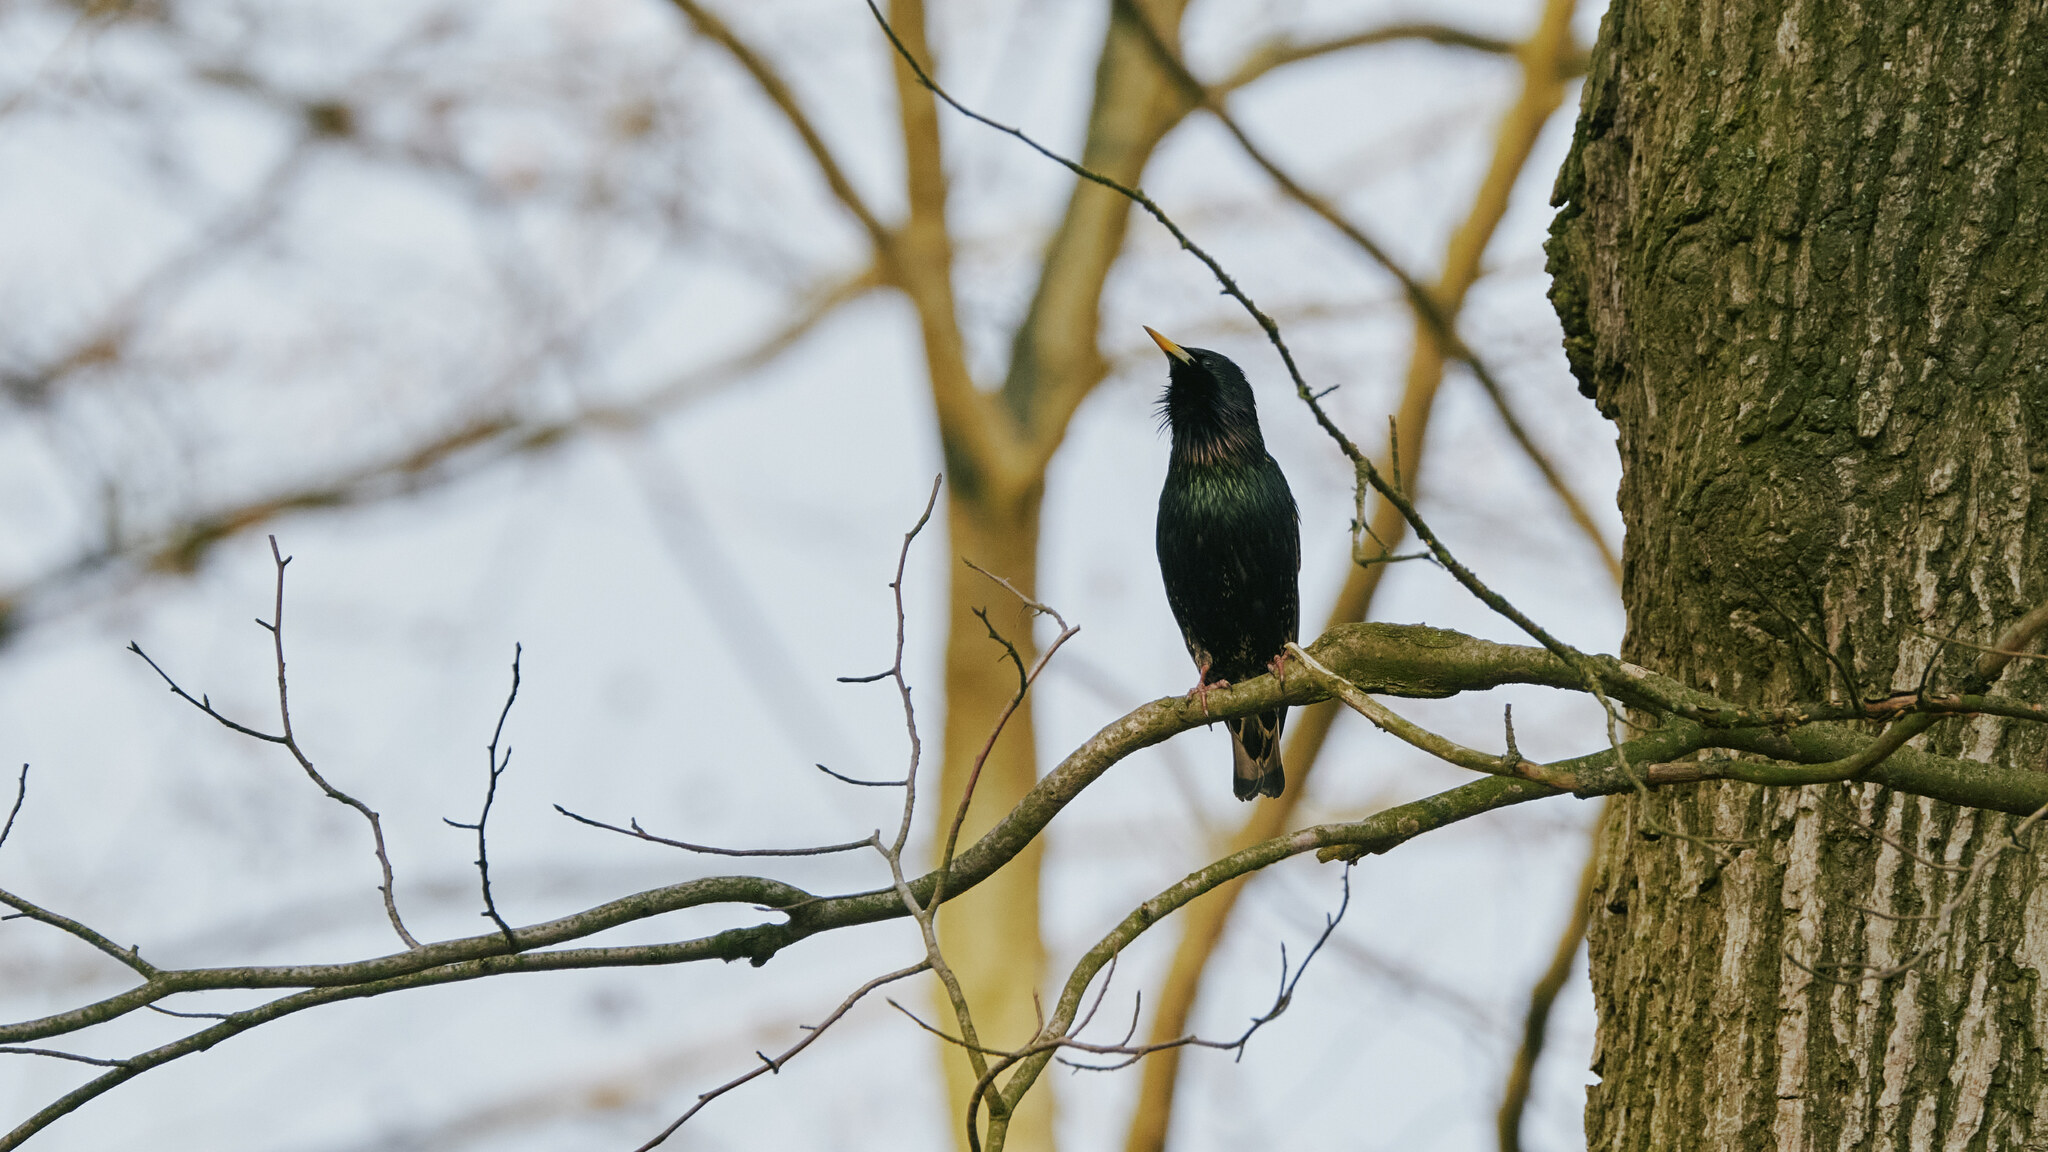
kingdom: Animalia
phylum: Chordata
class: Aves
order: Passeriformes
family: Sturnidae
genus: Sturnus
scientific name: Sturnus vulgaris
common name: Common starling
